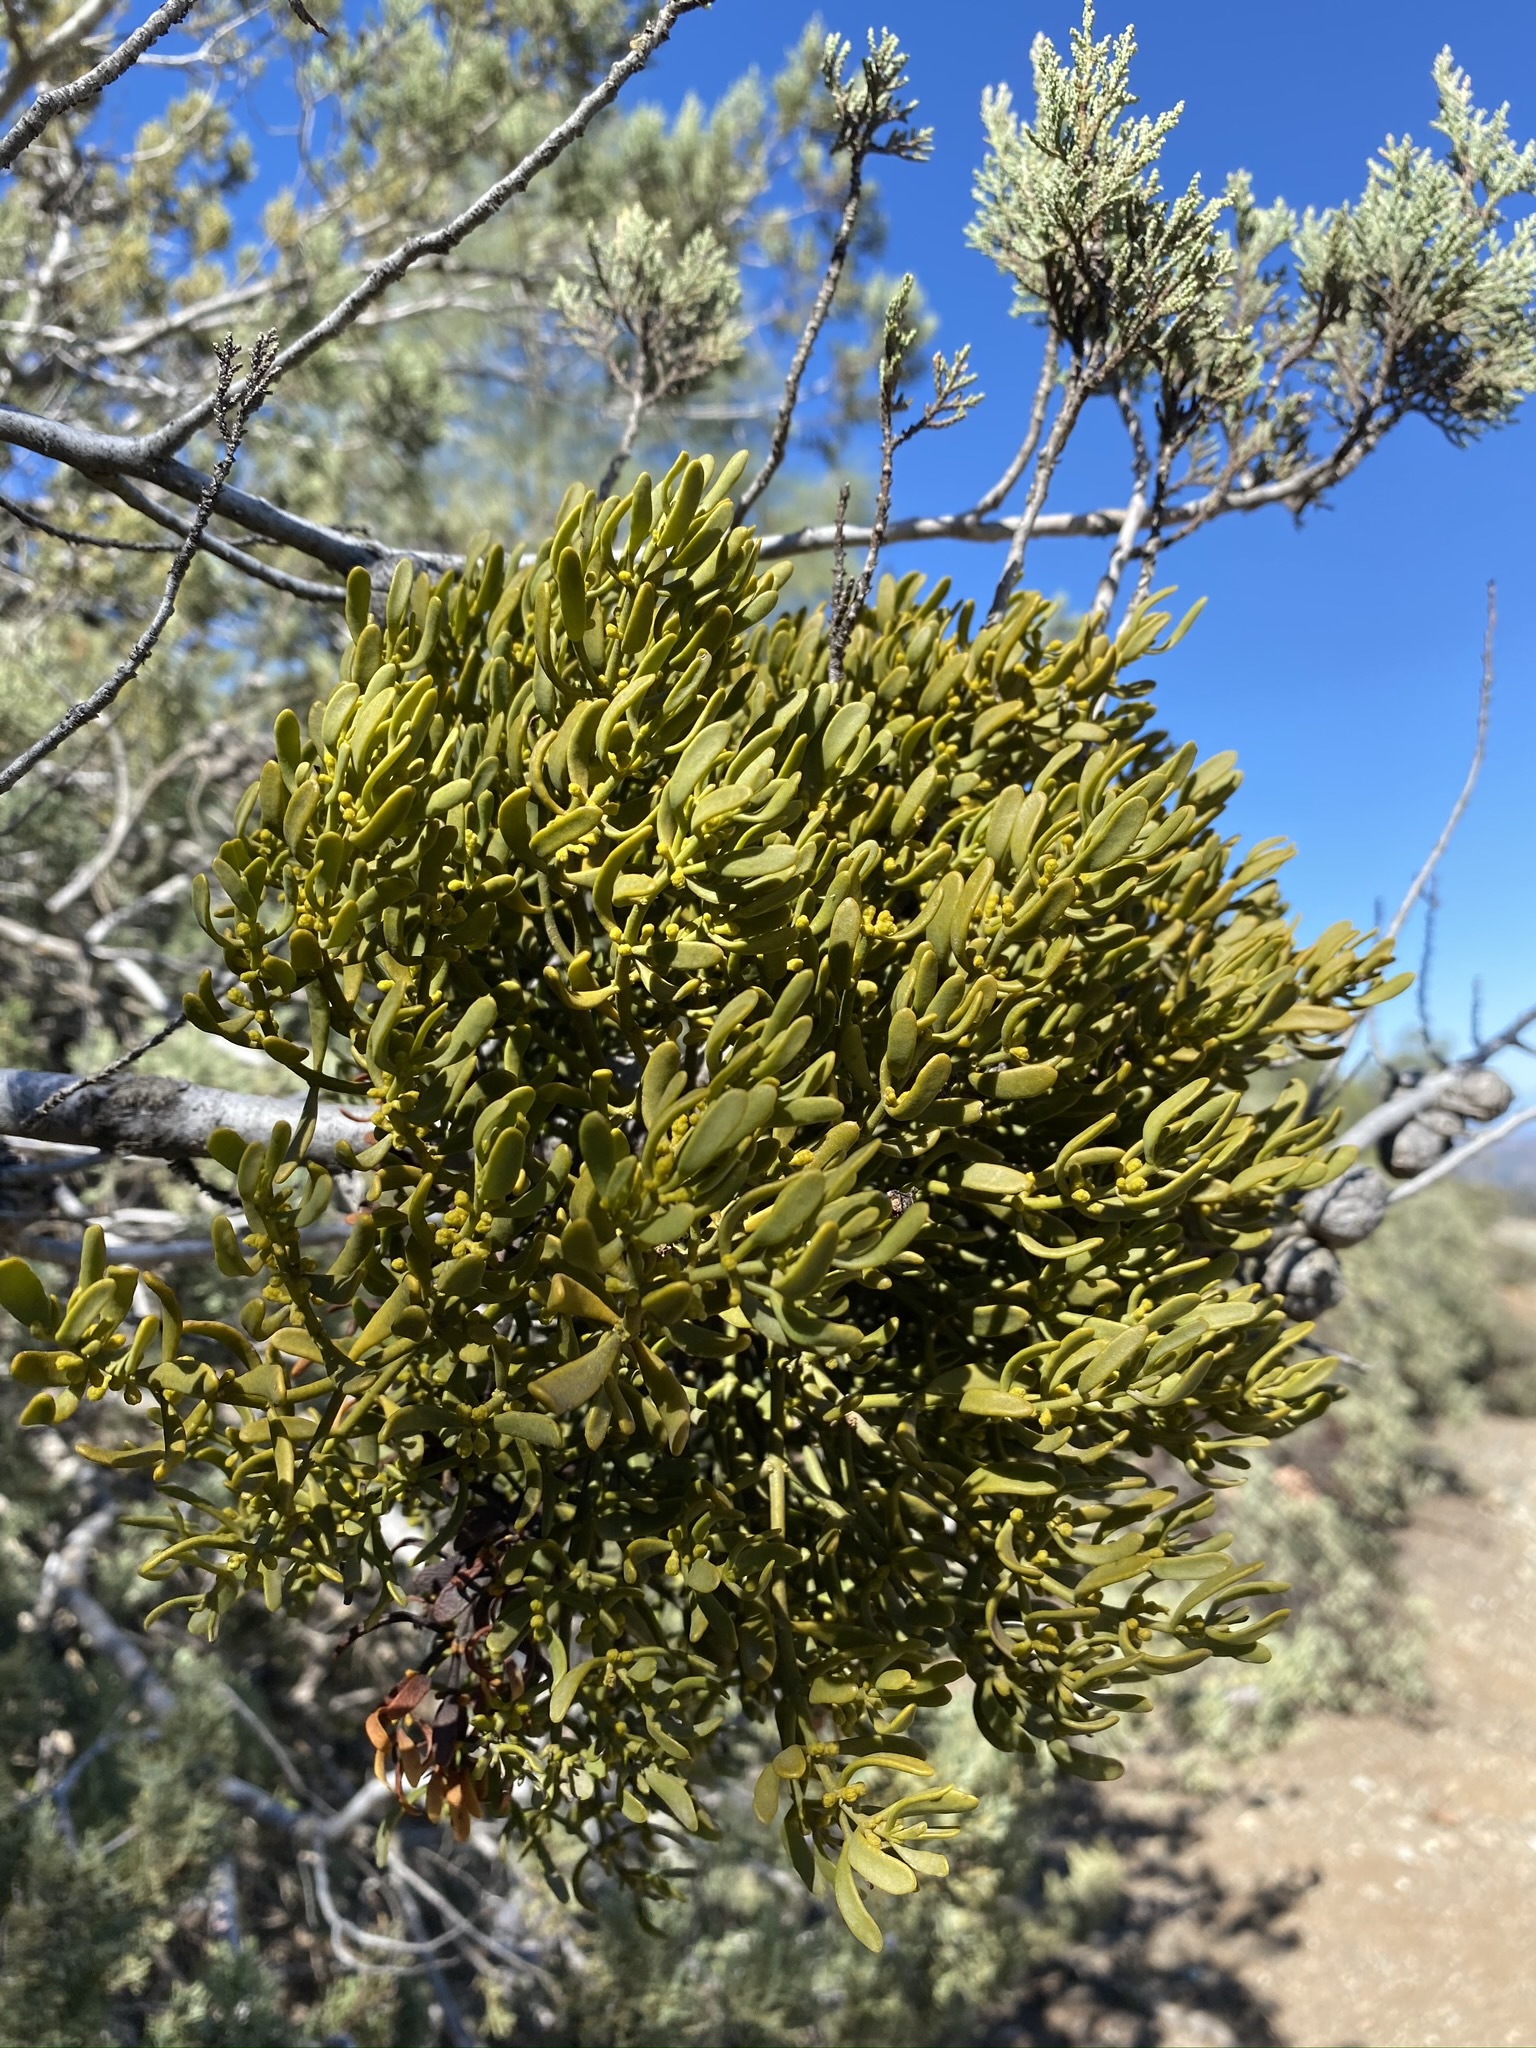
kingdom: Plantae
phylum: Tracheophyta
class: Magnoliopsida
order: Santalales
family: Viscaceae
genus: Phoradendron
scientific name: Phoradendron bolleanum
